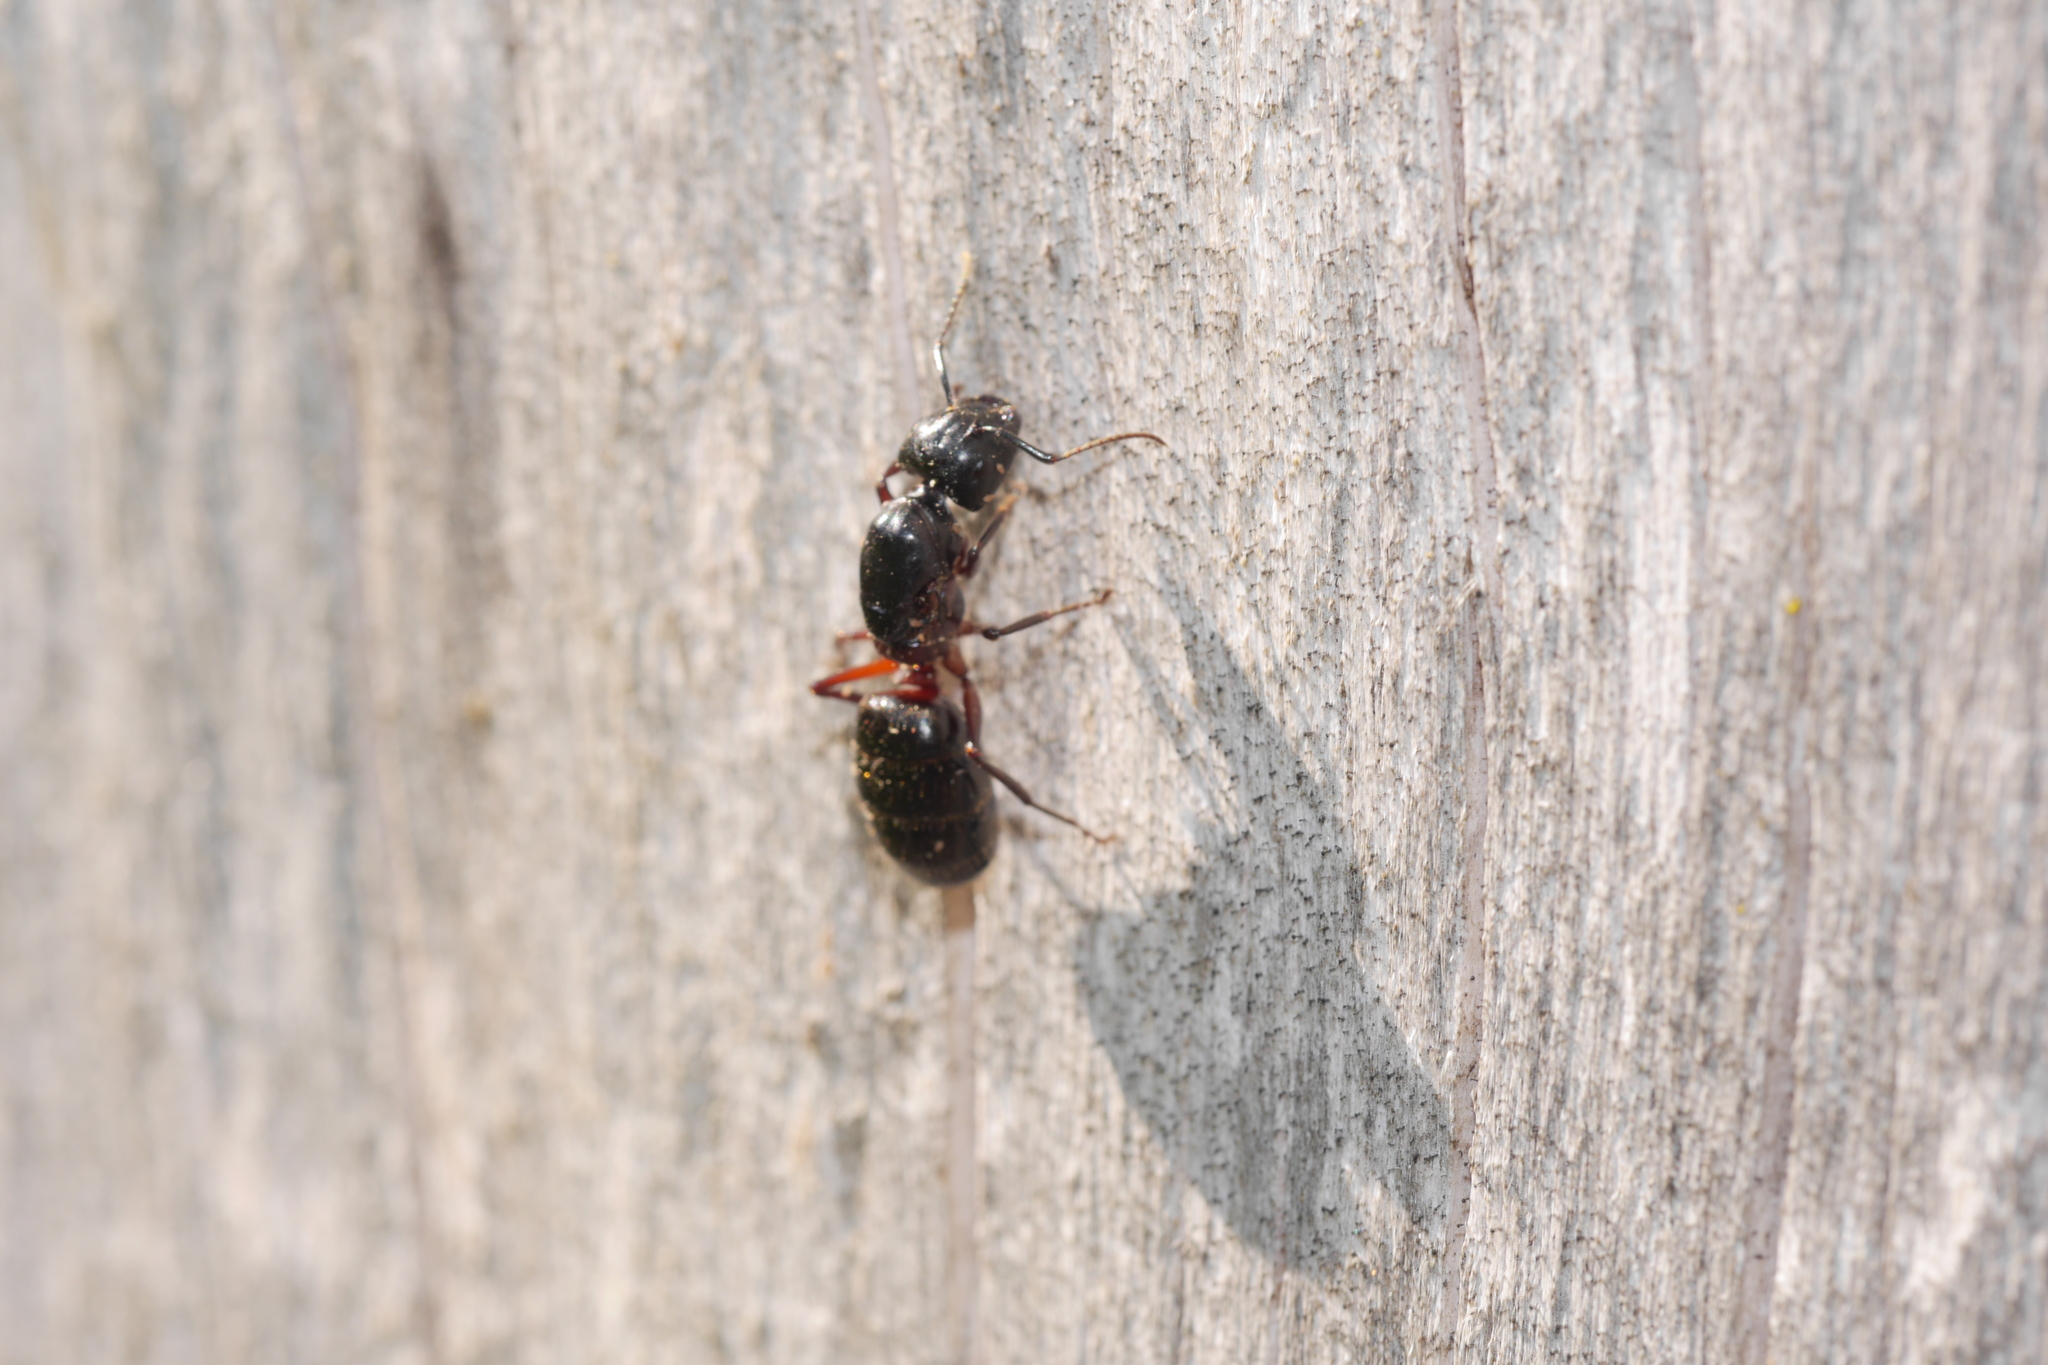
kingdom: Animalia
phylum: Arthropoda
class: Insecta
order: Hymenoptera
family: Formicidae
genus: Camponotus
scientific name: Camponotus herculeanus
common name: Hercules ant
